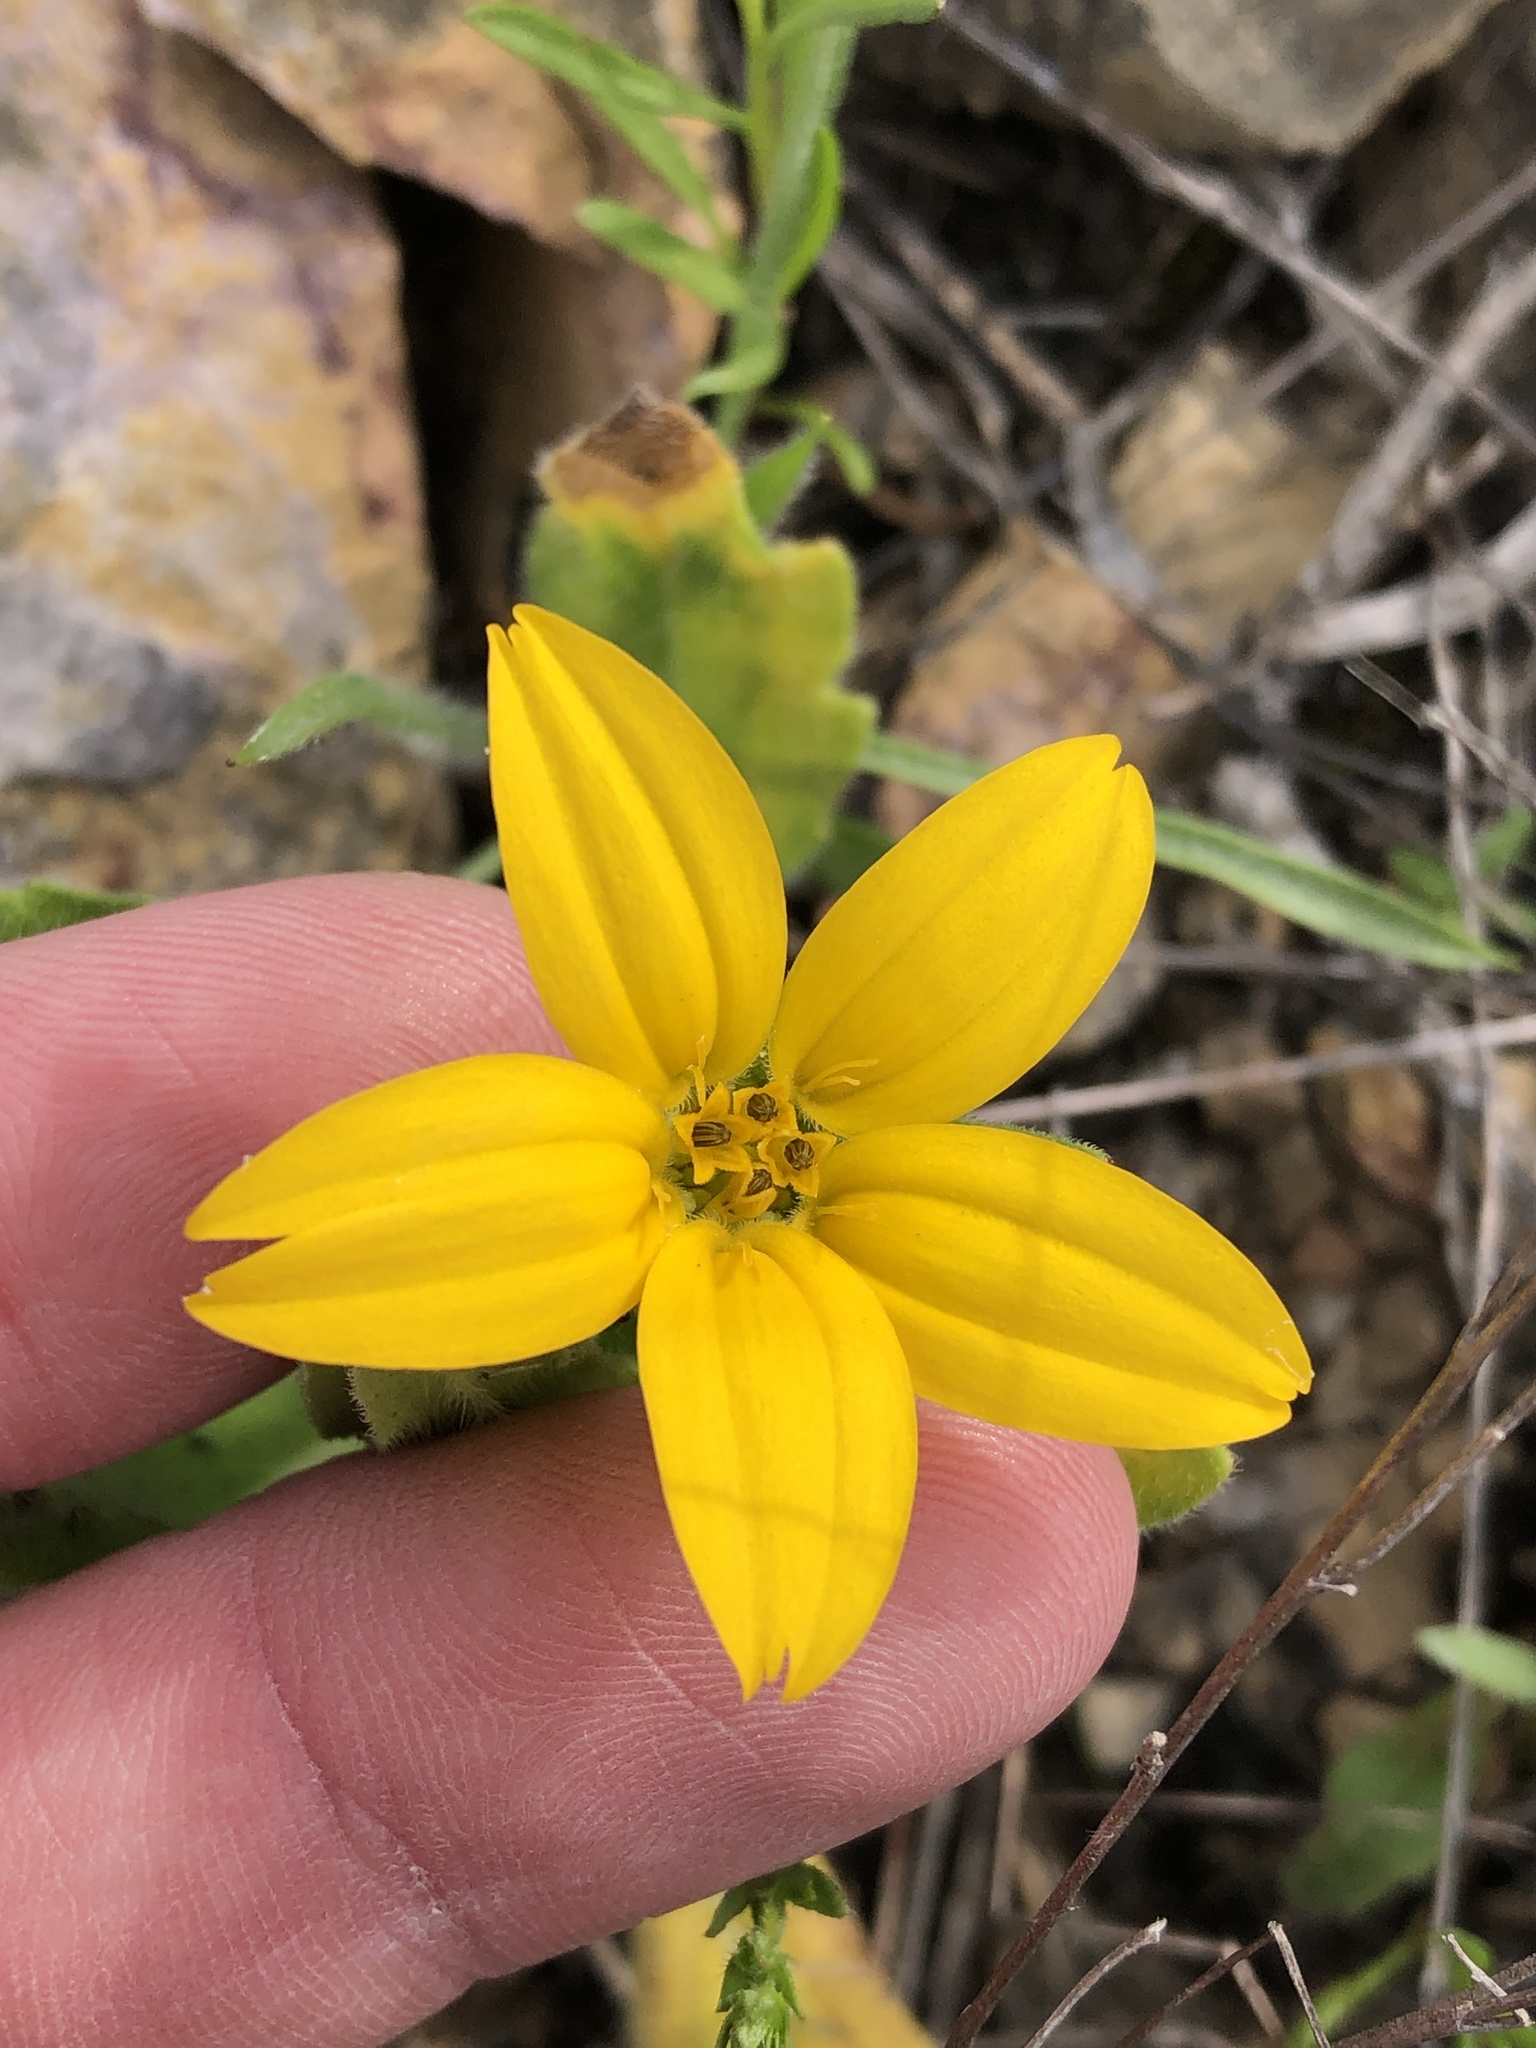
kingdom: Plantae
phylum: Tracheophyta
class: Magnoliopsida
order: Asterales
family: Asteraceae
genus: Lindheimera
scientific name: Lindheimera texana
